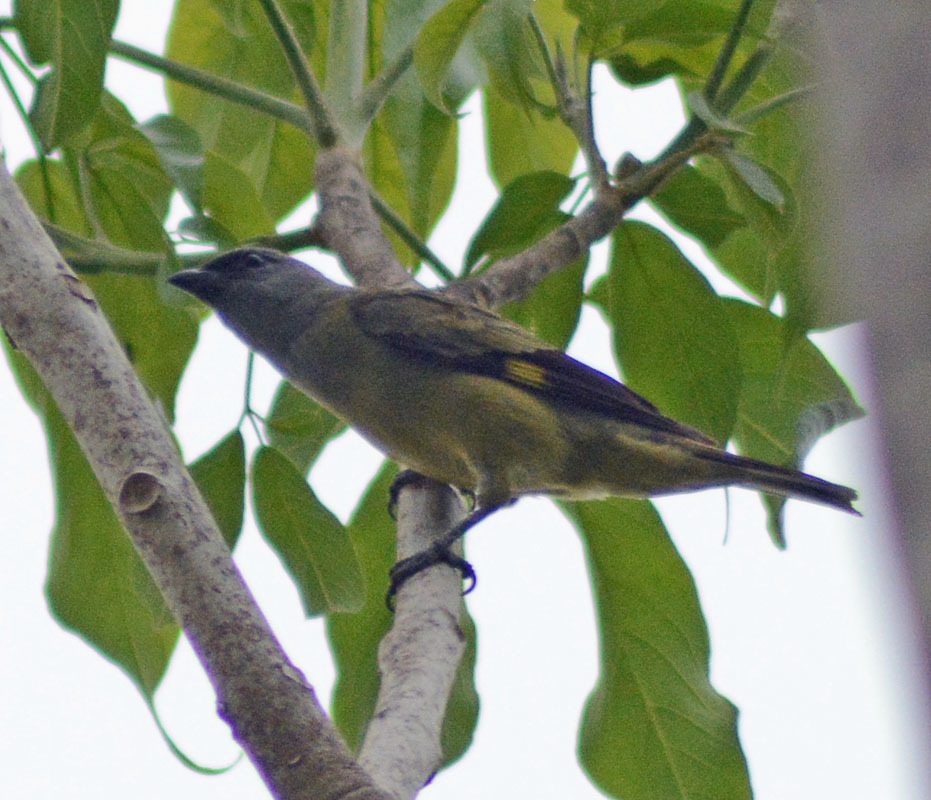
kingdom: Animalia
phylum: Chordata
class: Aves
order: Passeriformes
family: Thraupidae
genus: Thraupis
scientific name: Thraupis abbas
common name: Yellow-winged tanager
